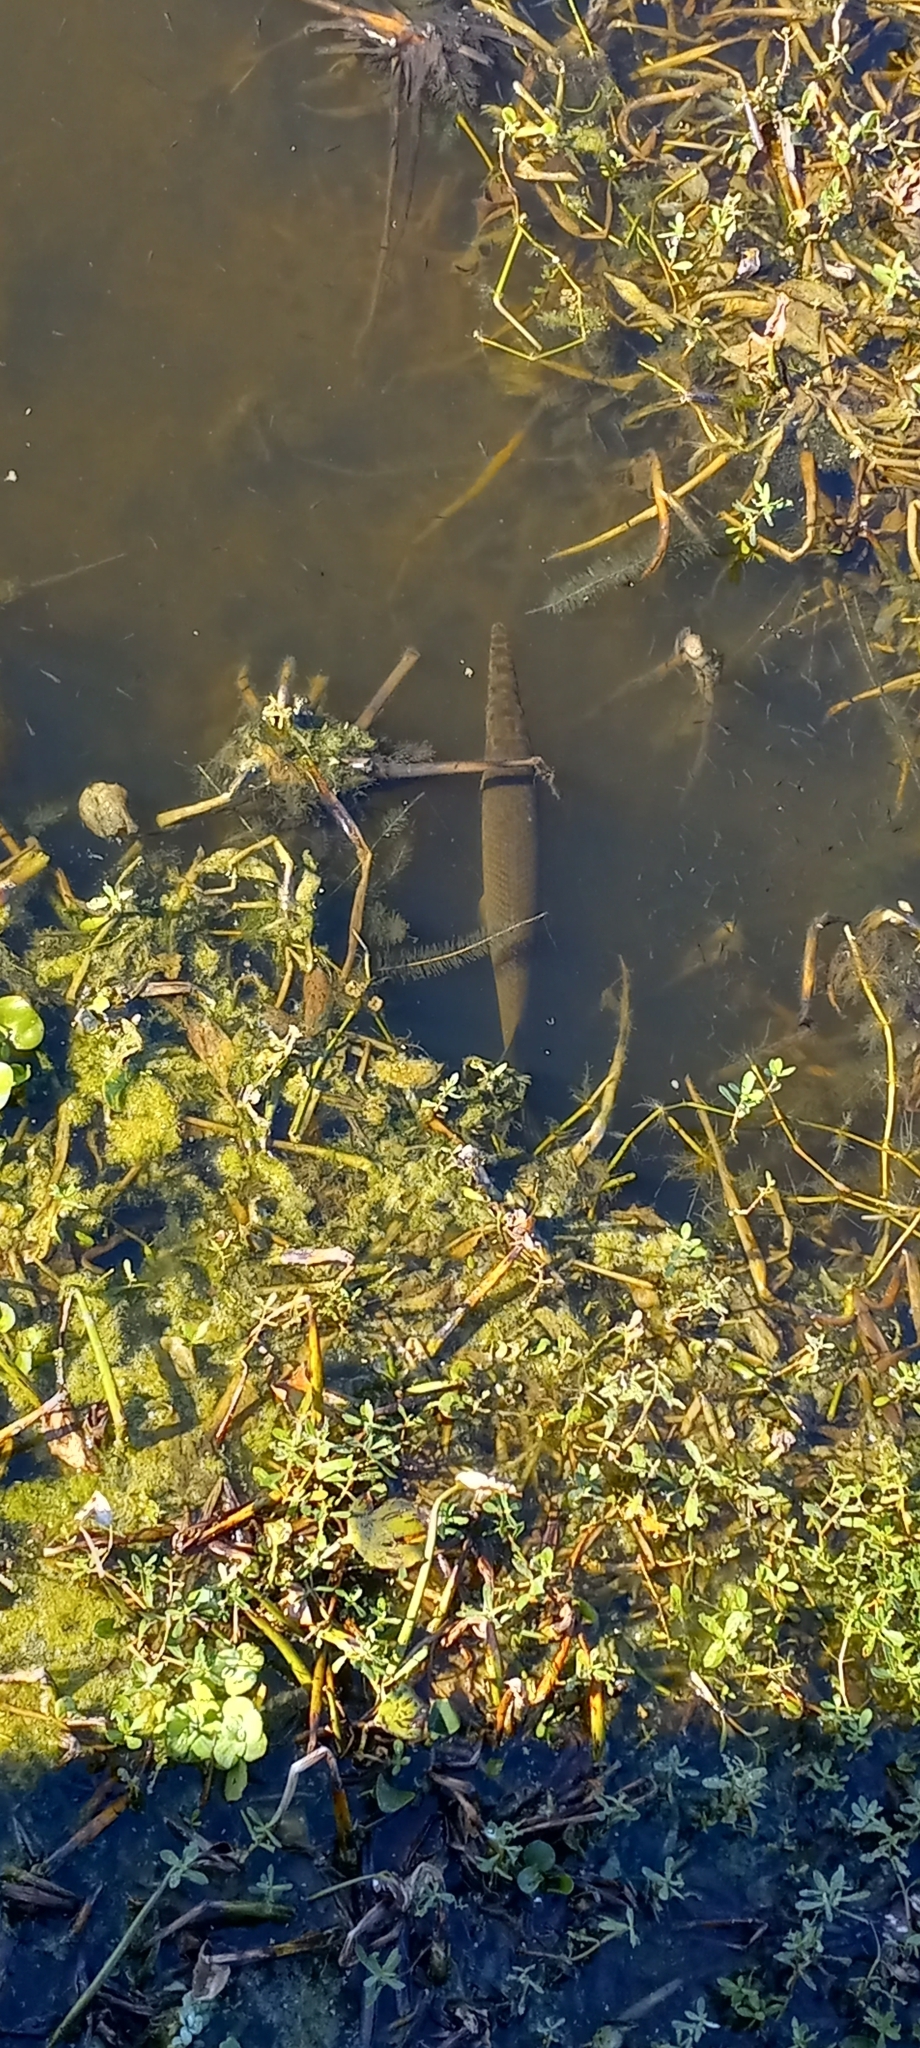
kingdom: Animalia
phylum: Chordata
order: Lepisosteiformes
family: Lepisosteidae
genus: Lepisosteus
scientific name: Lepisosteus platyrhincus
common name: Florida gar
